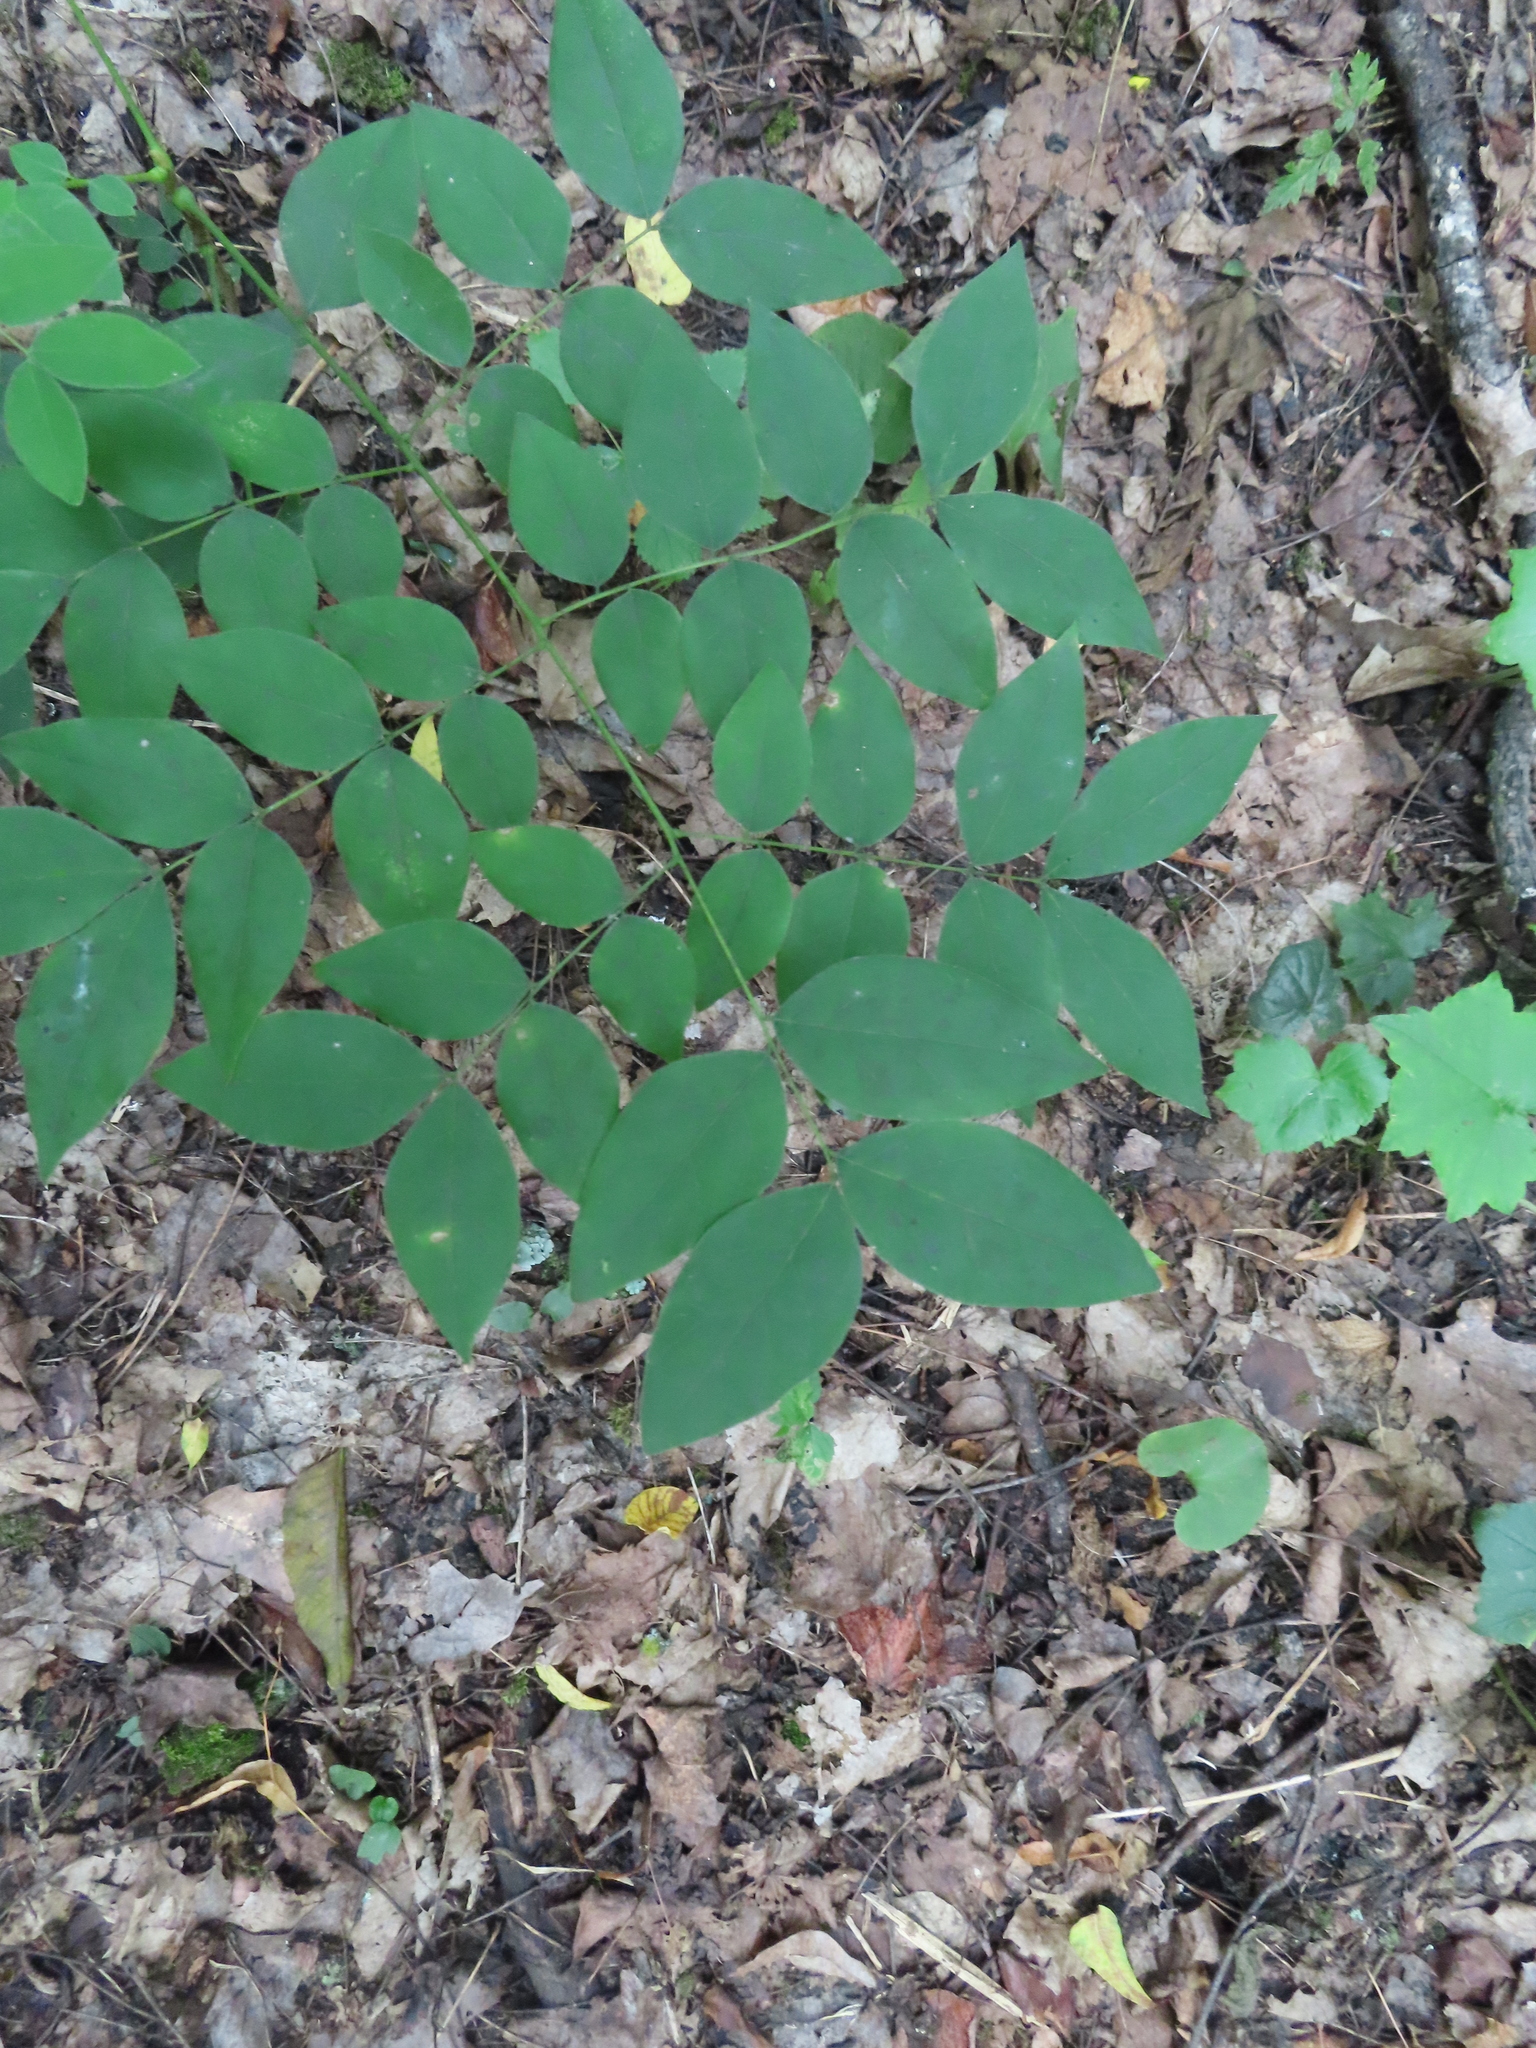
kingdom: Plantae
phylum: Tracheophyta
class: Magnoliopsida
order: Fabales
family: Fabaceae
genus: Gymnocladus
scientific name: Gymnocladus dioicus
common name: Kentucky coffee-tree
